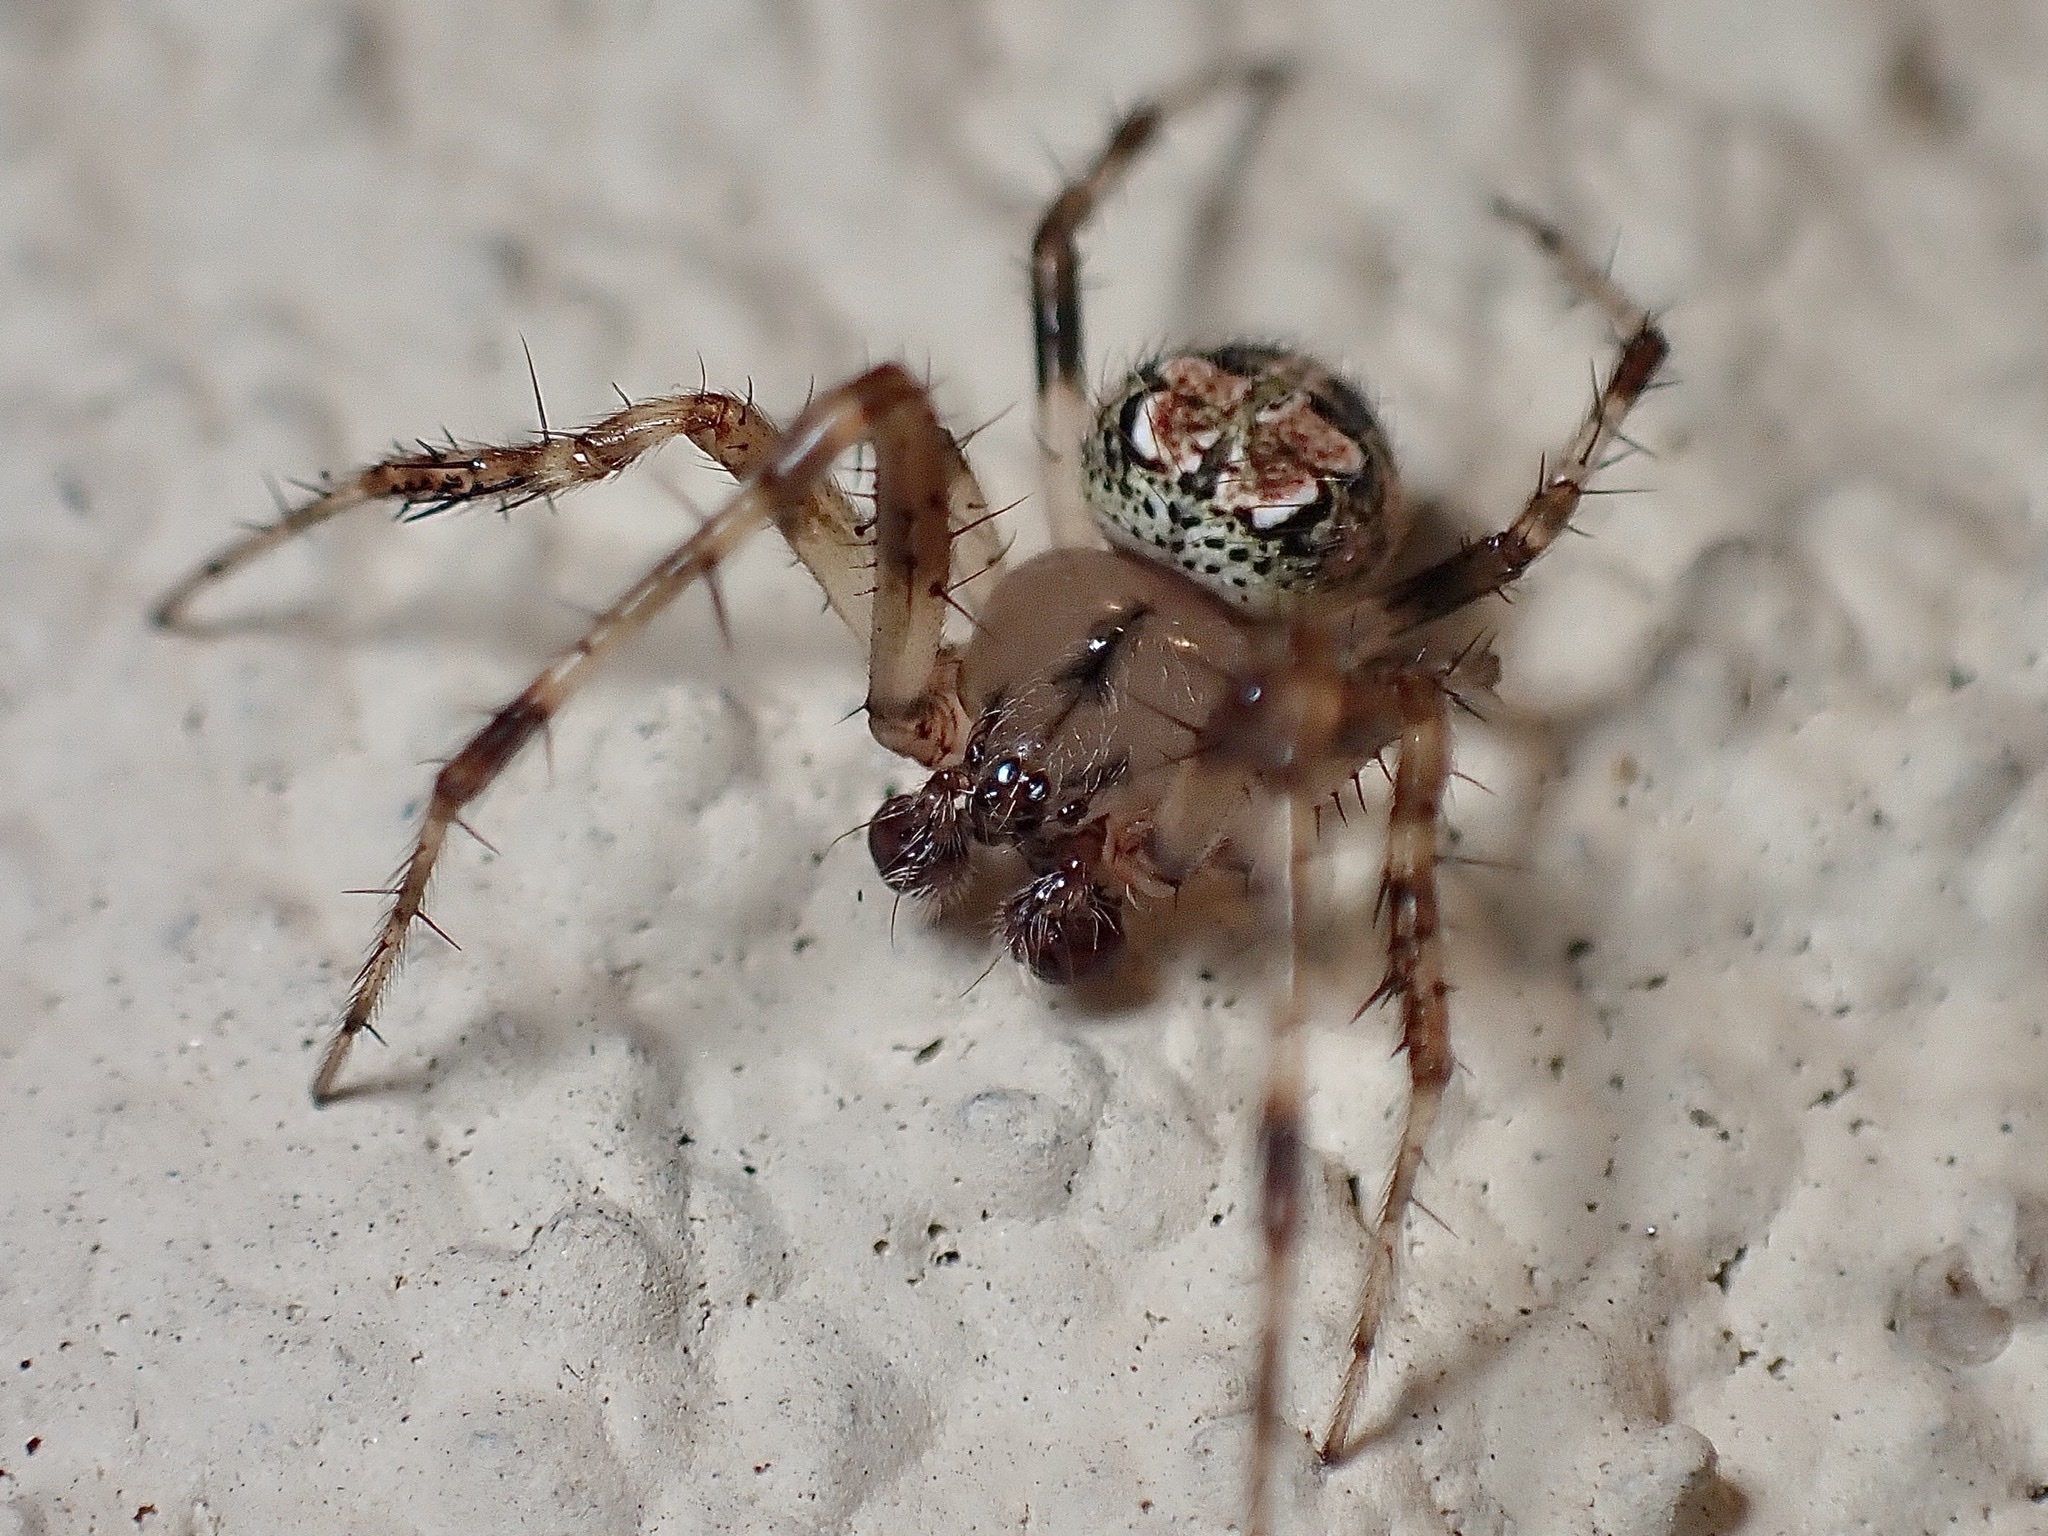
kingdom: Animalia
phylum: Arthropoda
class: Arachnida
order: Araneae
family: Araneidae
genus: Araneus
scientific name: Araneus pegnia
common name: Orb weavers
